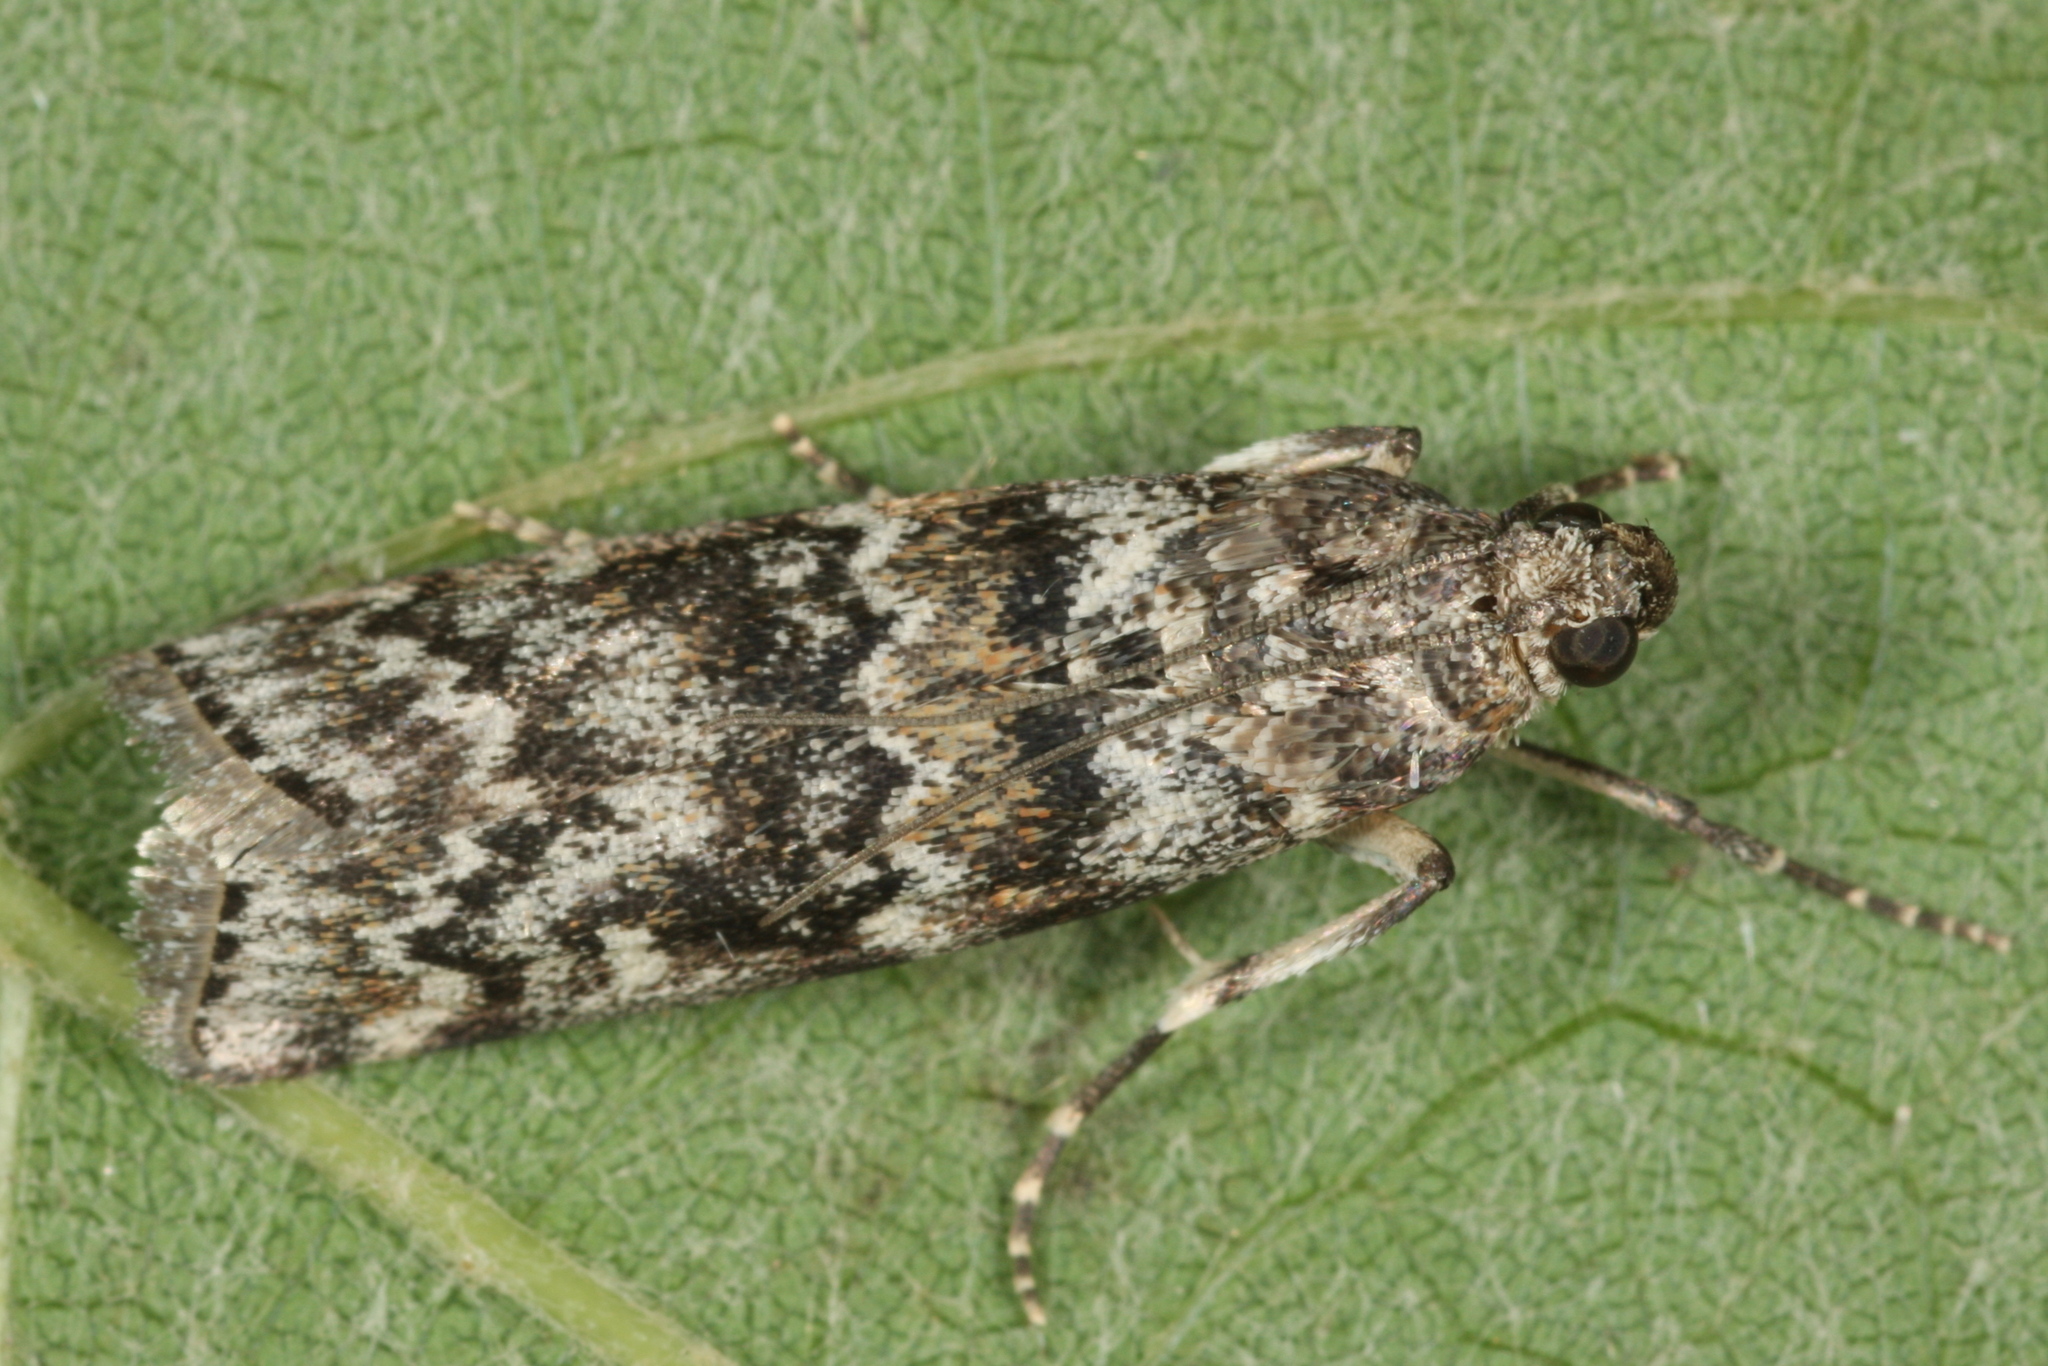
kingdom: Animalia
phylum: Arthropoda
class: Insecta
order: Lepidoptera
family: Pyralidae
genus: Dioryctria
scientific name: Dioryctria abietella
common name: Dark pine knot-horn
